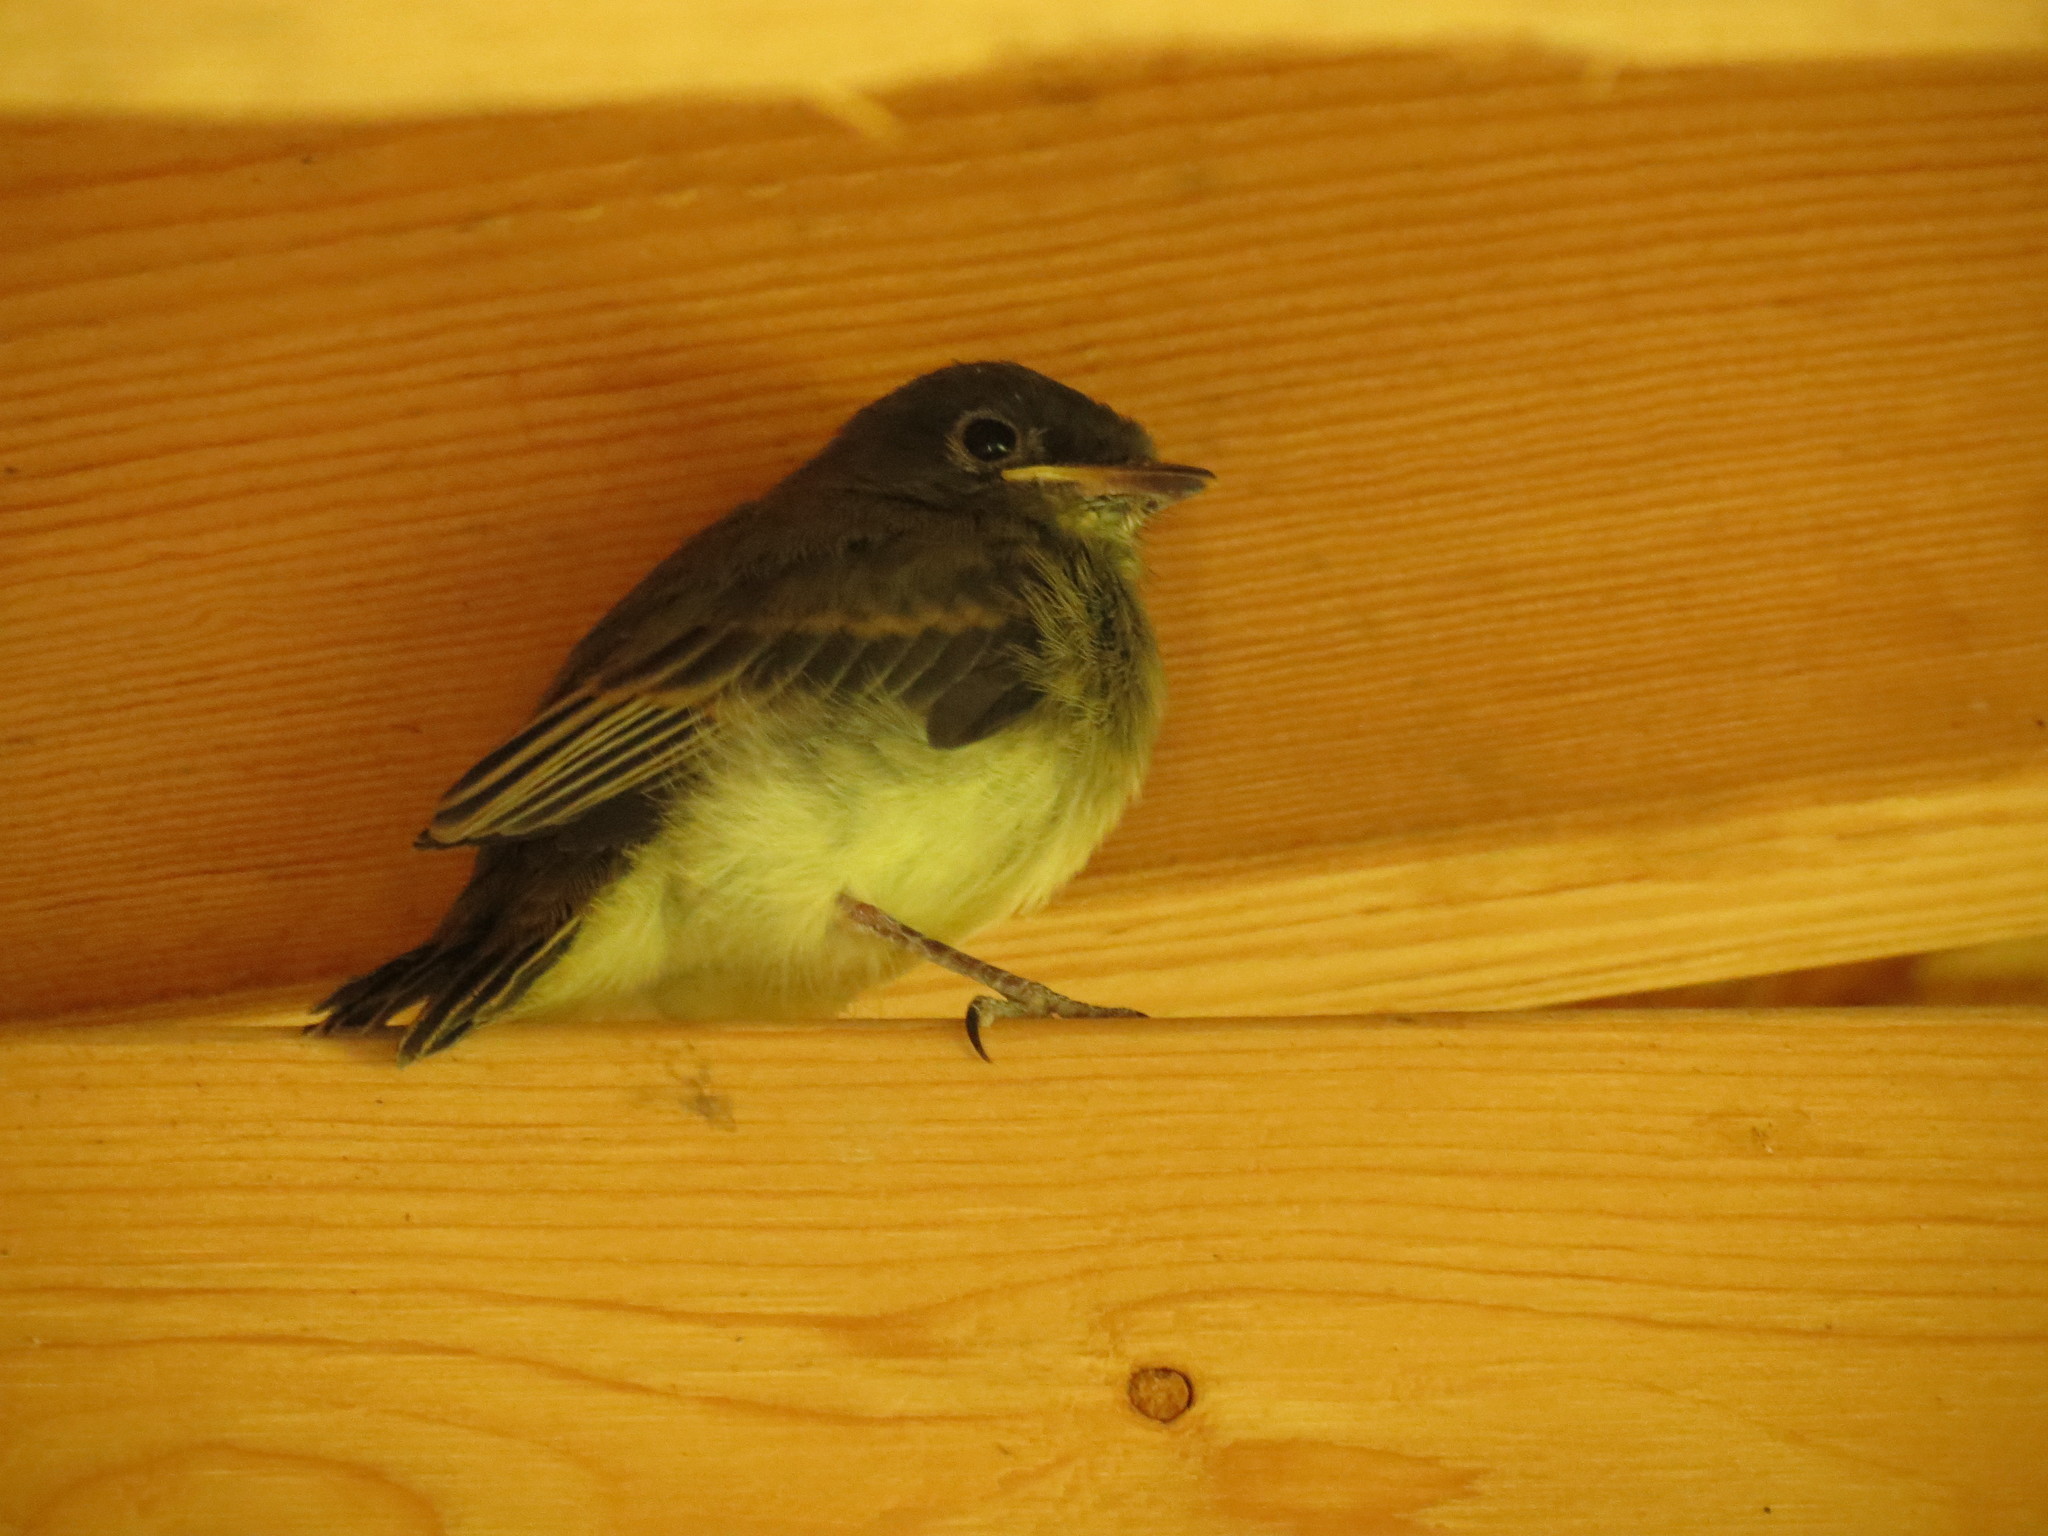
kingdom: Animalia
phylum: Chordata
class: Aves
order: Passeriformes
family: Tyrannidae
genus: Sayornis
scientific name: Sayornis phoebe
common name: Eastern phoebe
